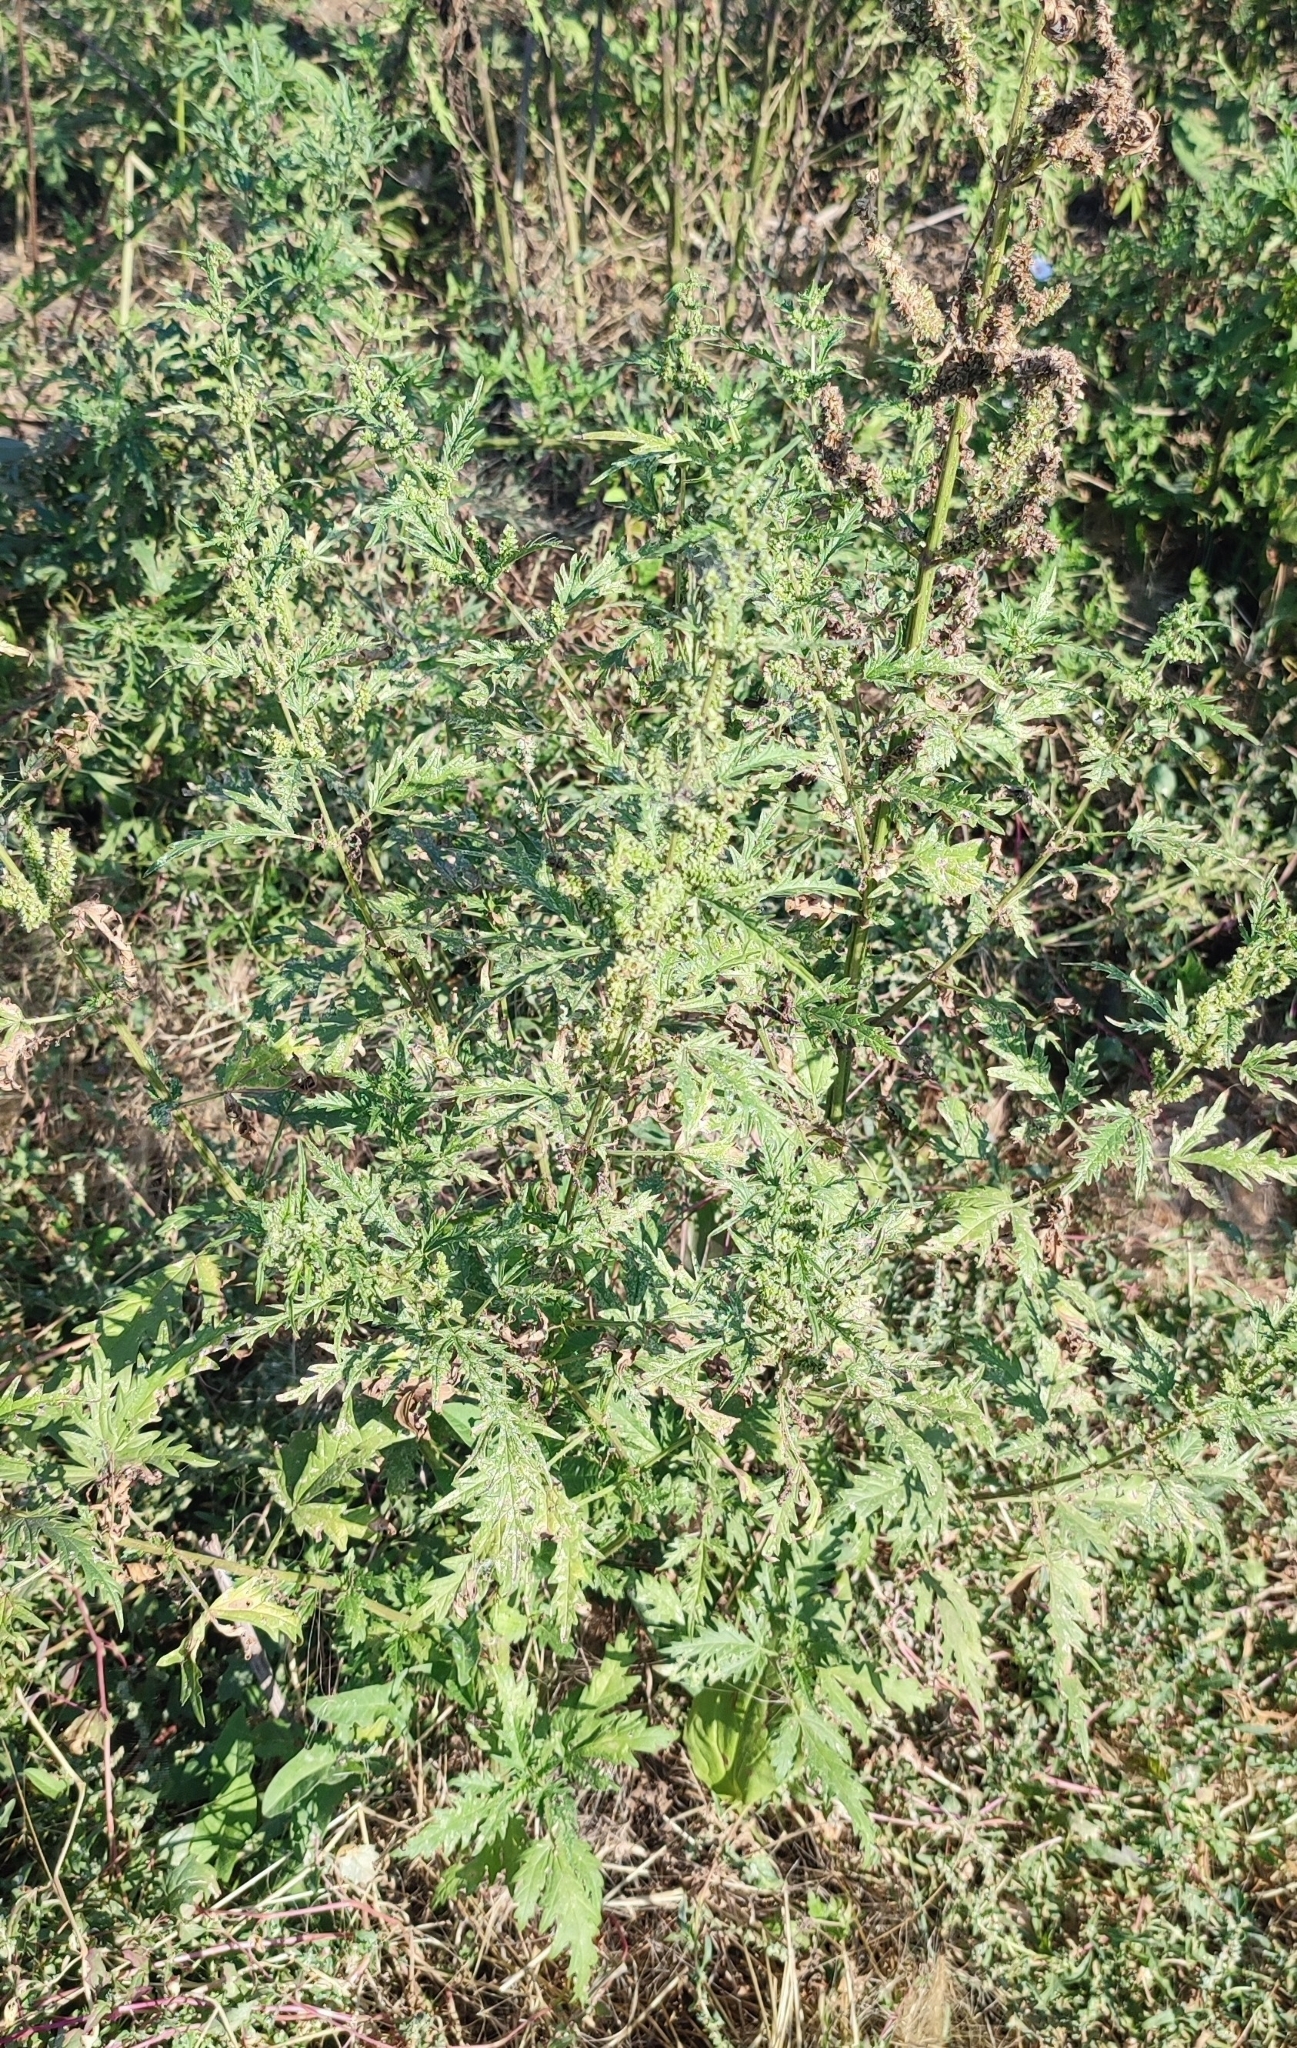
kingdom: Plantae
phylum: Tracheophyta
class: Magnoliopsida
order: Rosales
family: Urticaceae
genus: Urtica
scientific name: Urtica cannabina
